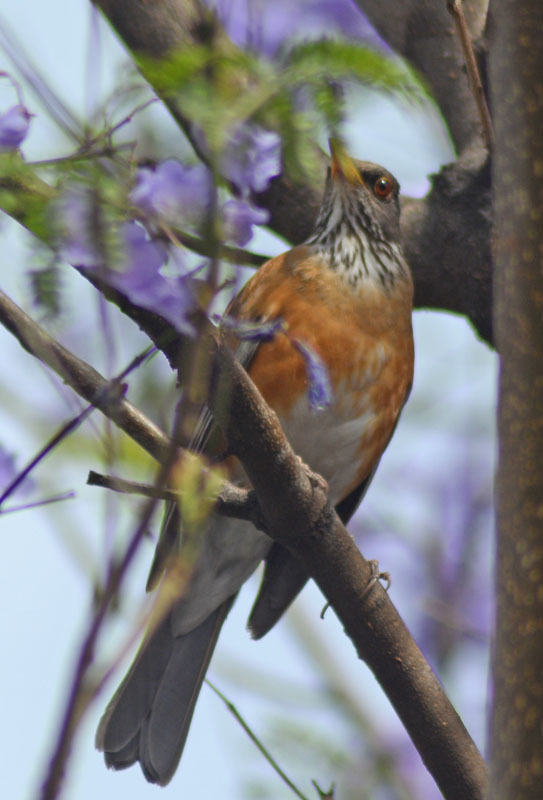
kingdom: Animalia
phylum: Chordata
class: Aves
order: Passeriformes
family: Turdidae
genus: Turdus
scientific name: Turdus rufopalliatus
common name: Rufous-backed robin
